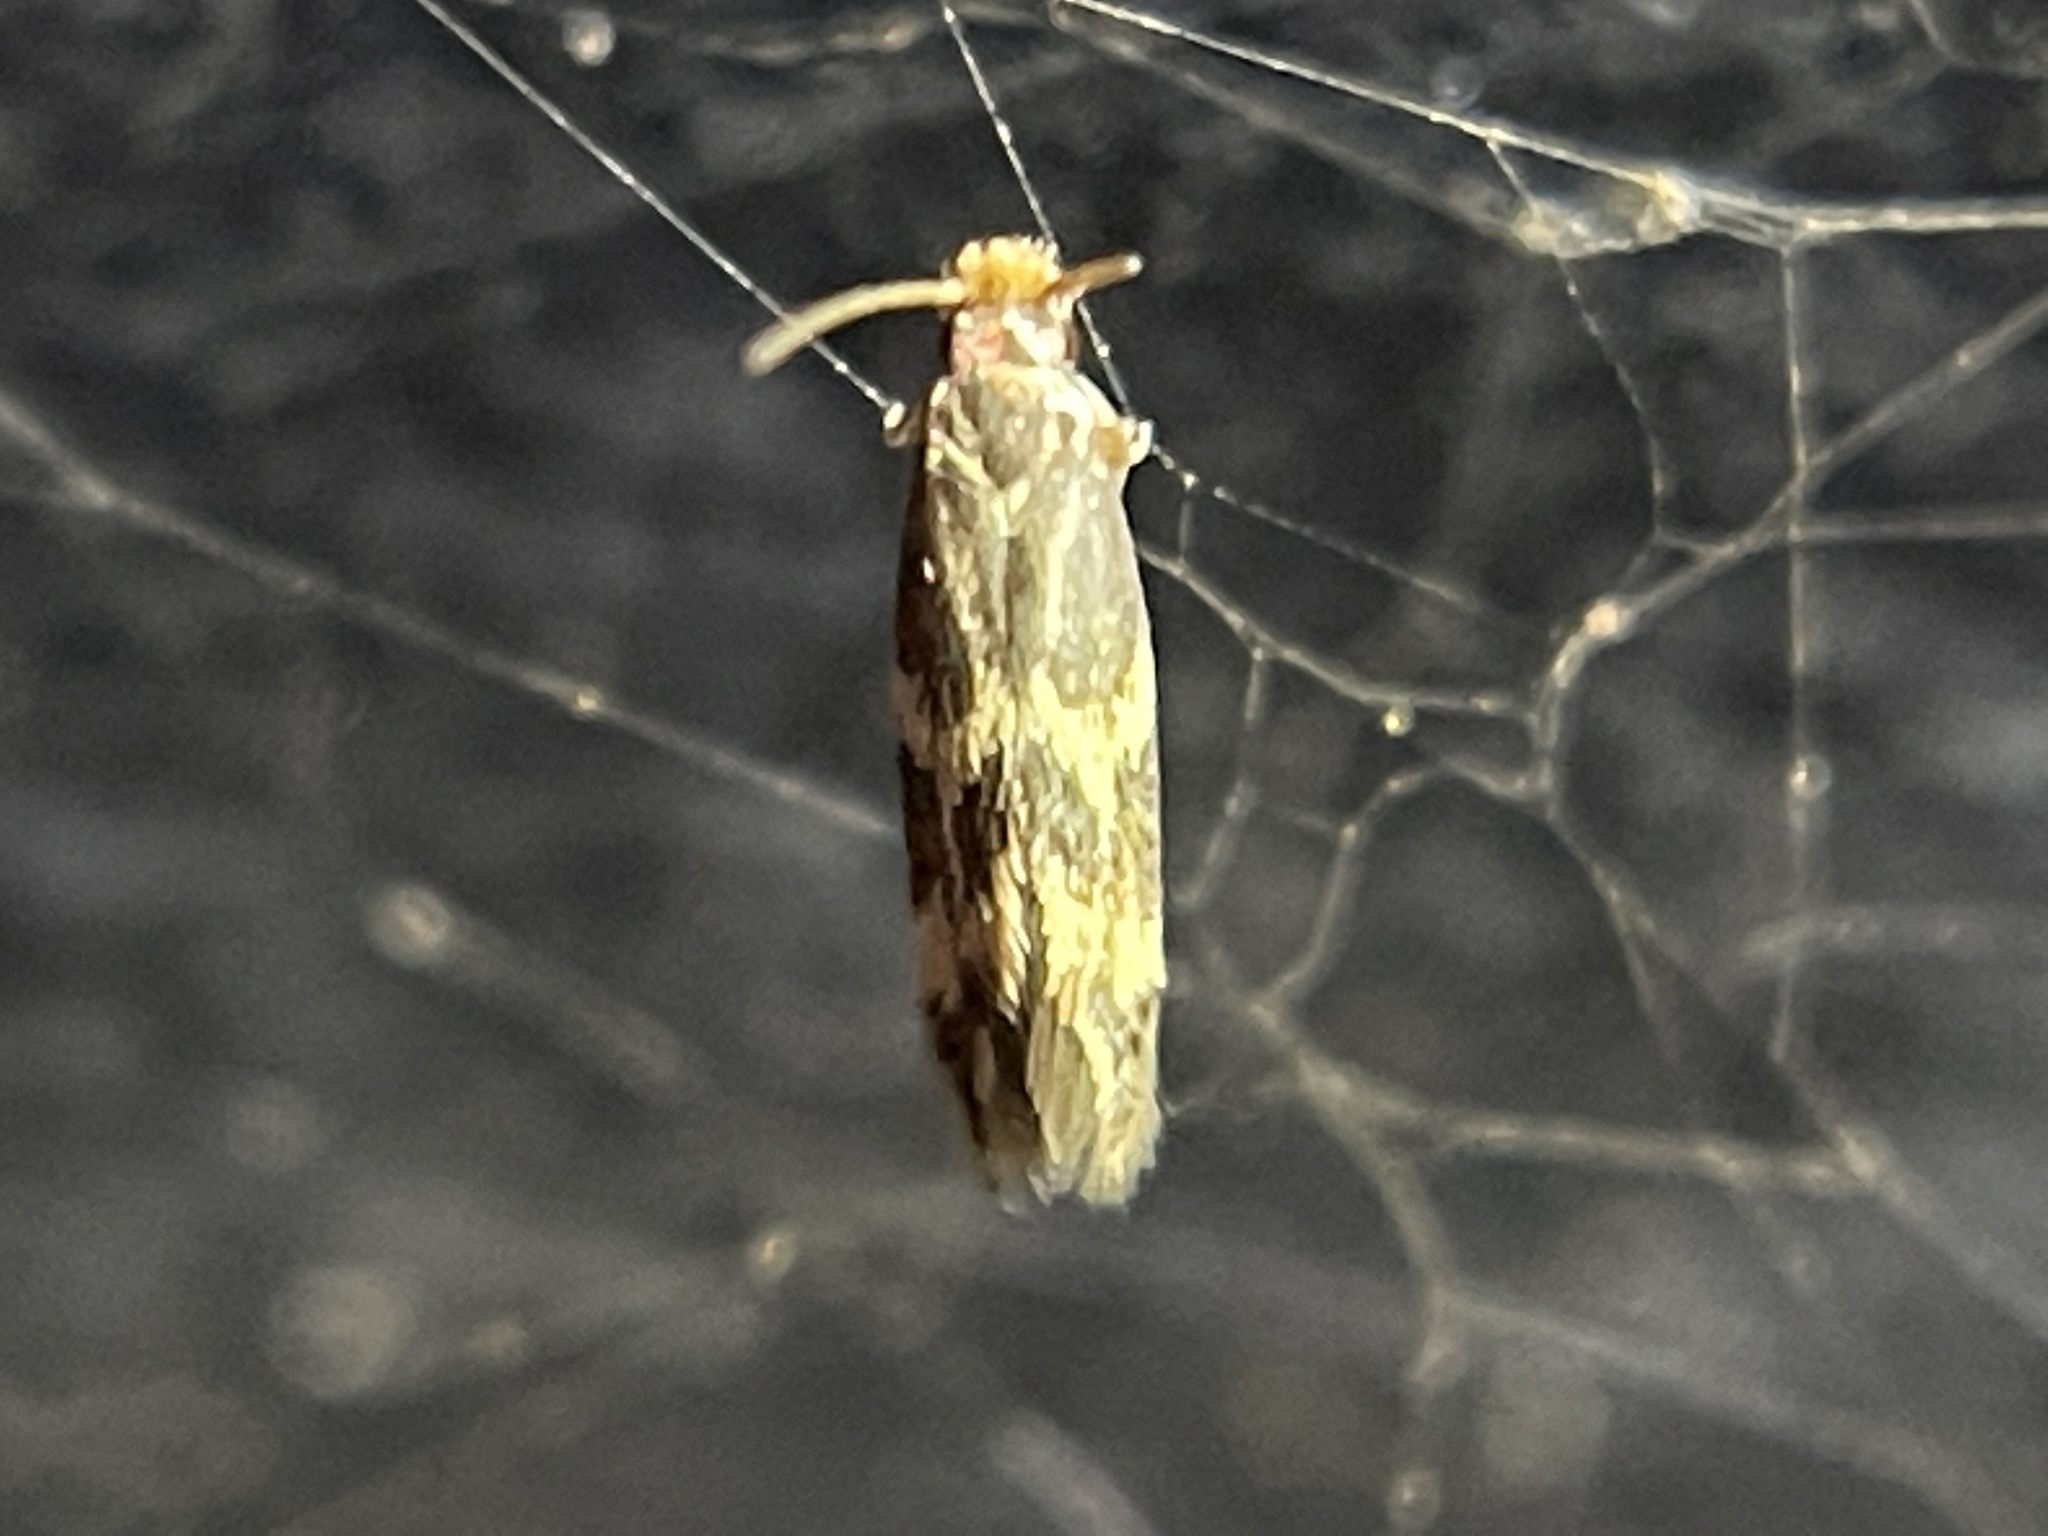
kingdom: Animalia
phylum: Arthropoda
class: Insecta
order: Lepidoptera
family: Tineidae
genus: Oinophila
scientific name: Oinophila v-flava
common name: Yellow v moth
